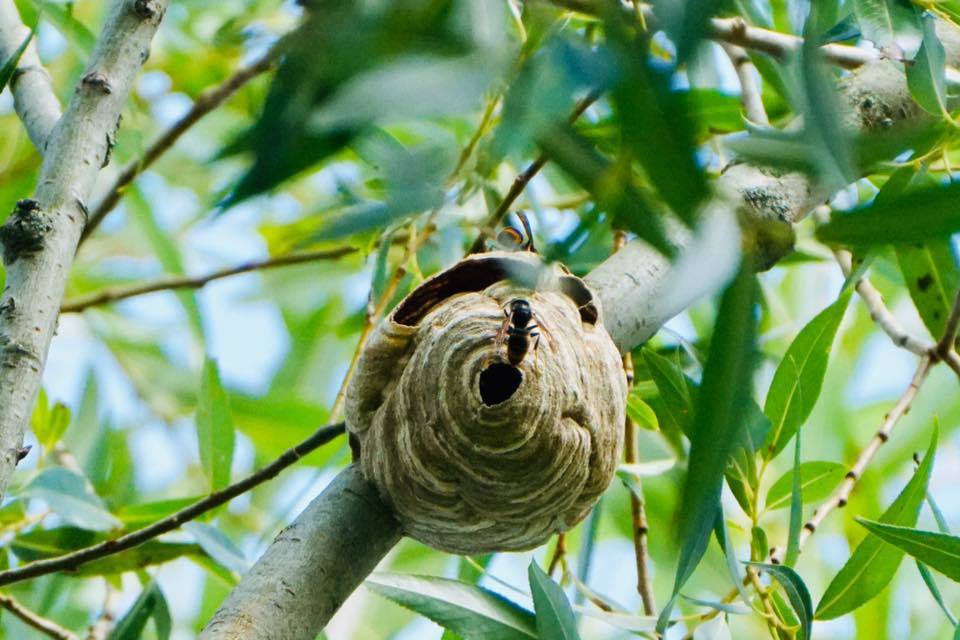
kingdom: Animalia
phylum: Arthropoda
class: Insecta
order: Hymenoptera
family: Vespidae
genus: Vespa
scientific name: Vespa velutina
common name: Asian hornet
